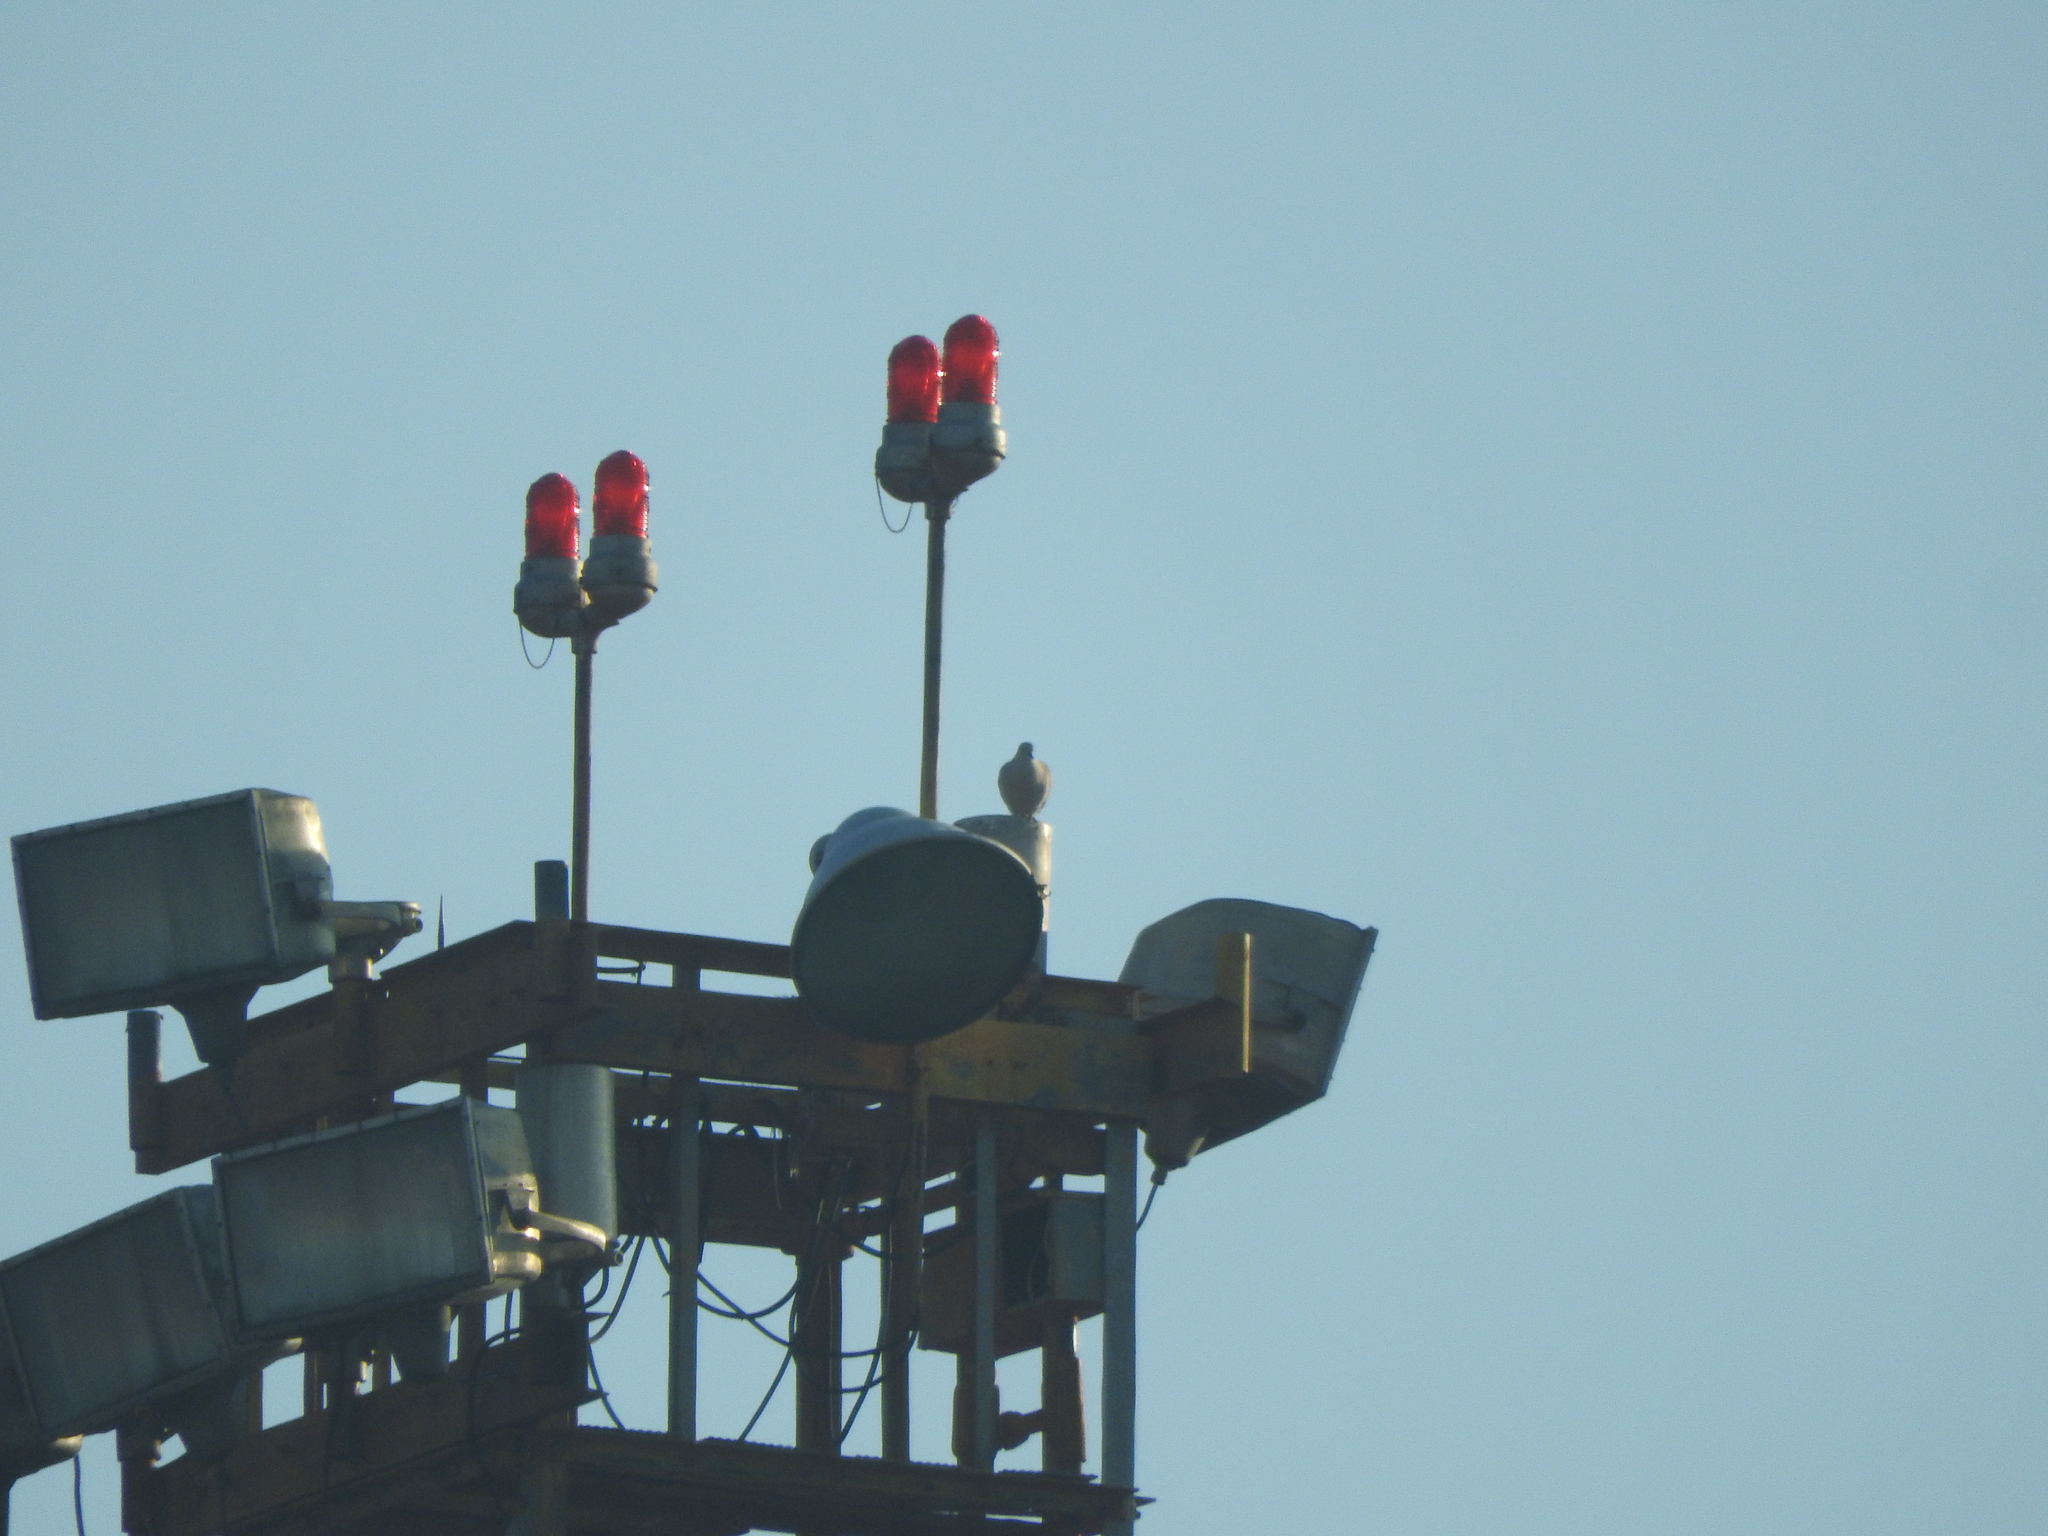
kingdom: Animalia
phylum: Chordata
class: Aves
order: Columbiformes
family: Columbidae
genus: Zenaida
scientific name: Zenaida asiatica
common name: White-winged dove
